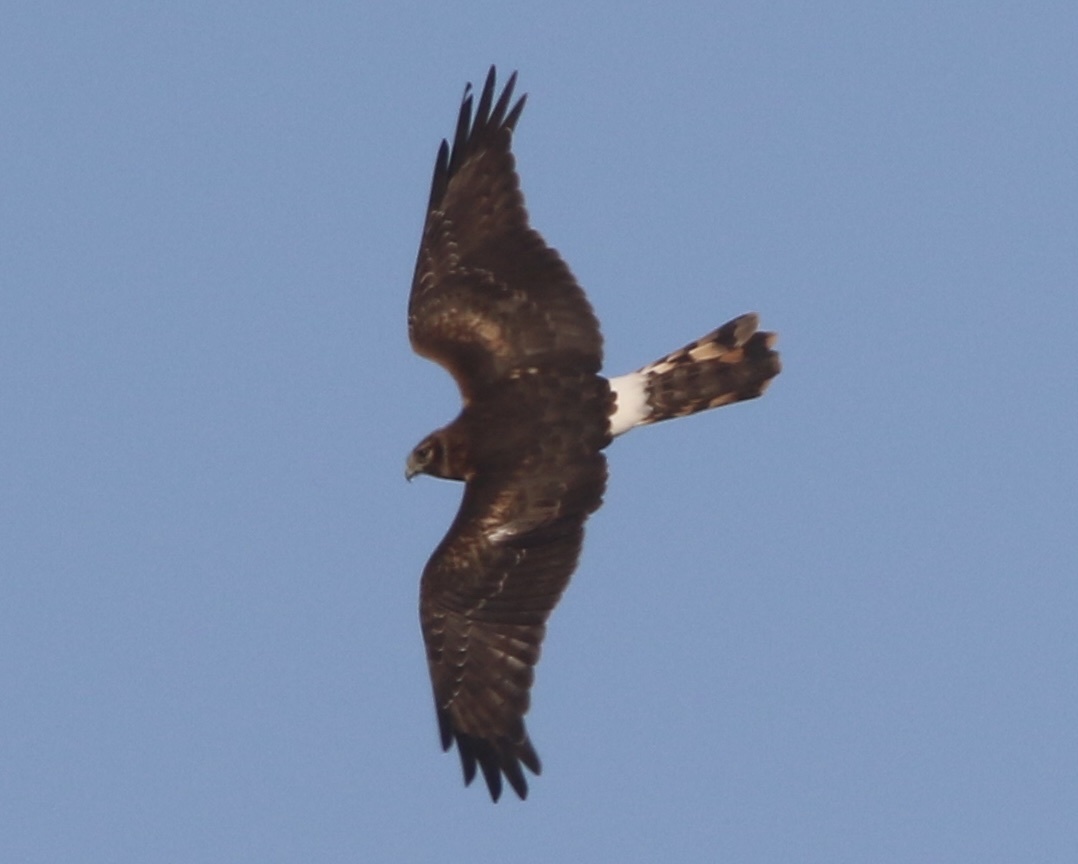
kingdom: Animalia
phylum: Chordata
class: Aves
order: Accipitriformes
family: Accipitridae
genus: Circus
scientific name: Circus cyaneus
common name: Hen harrier
